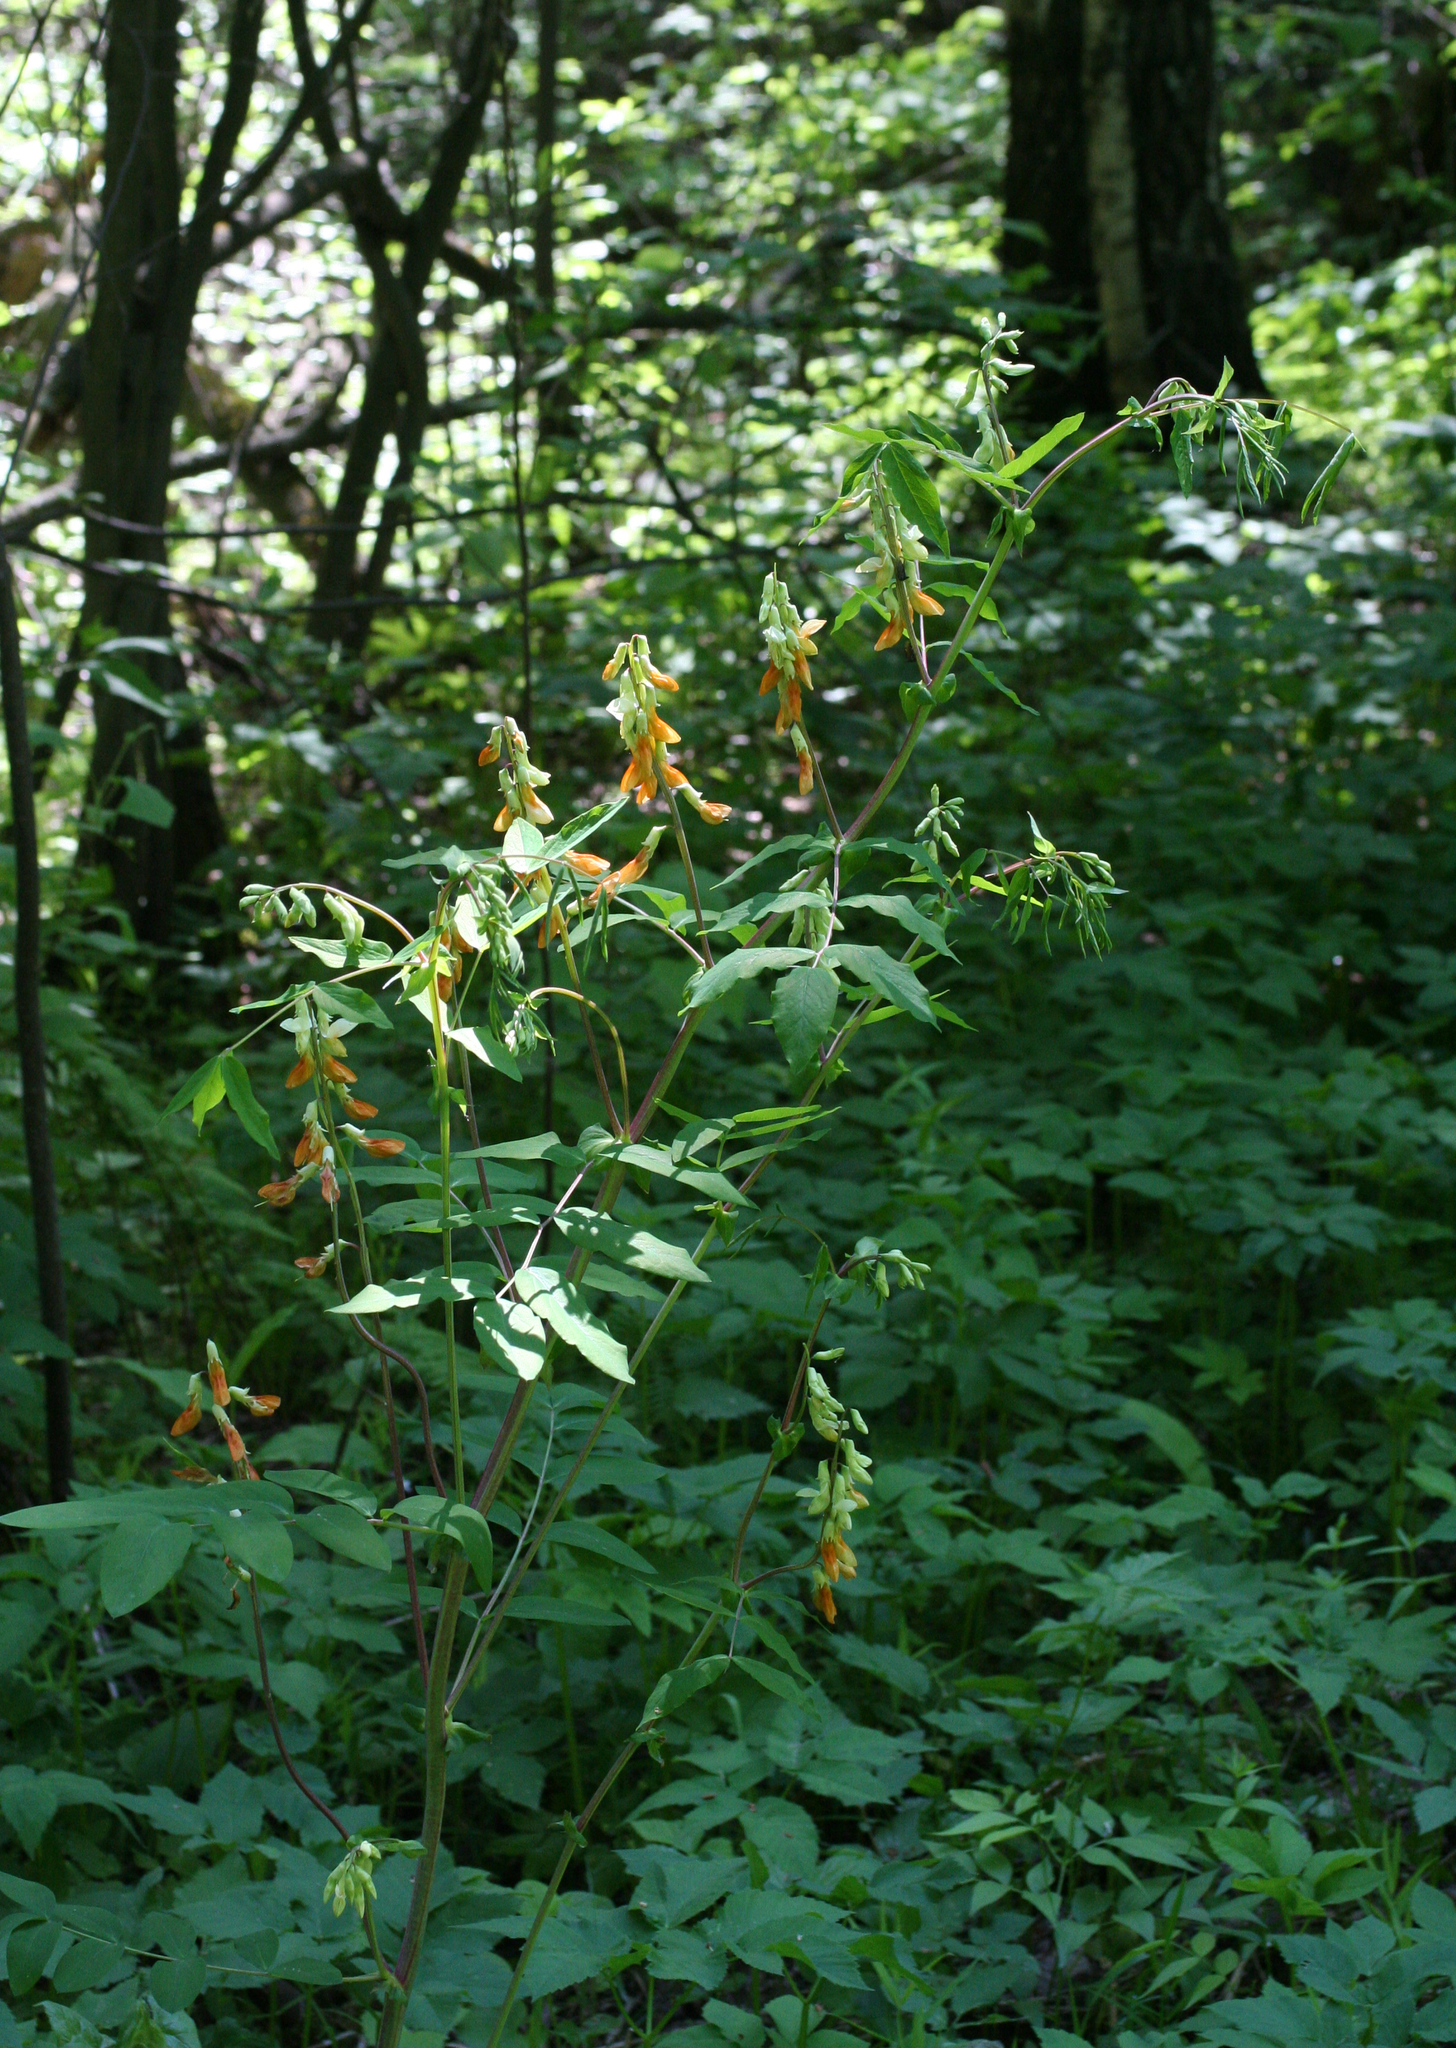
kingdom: Plantae
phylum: Tracheophyta
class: Magnoliopsida
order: Fabales
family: Fabaceae
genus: Lathyrus
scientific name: Lathyrus gmelinii
